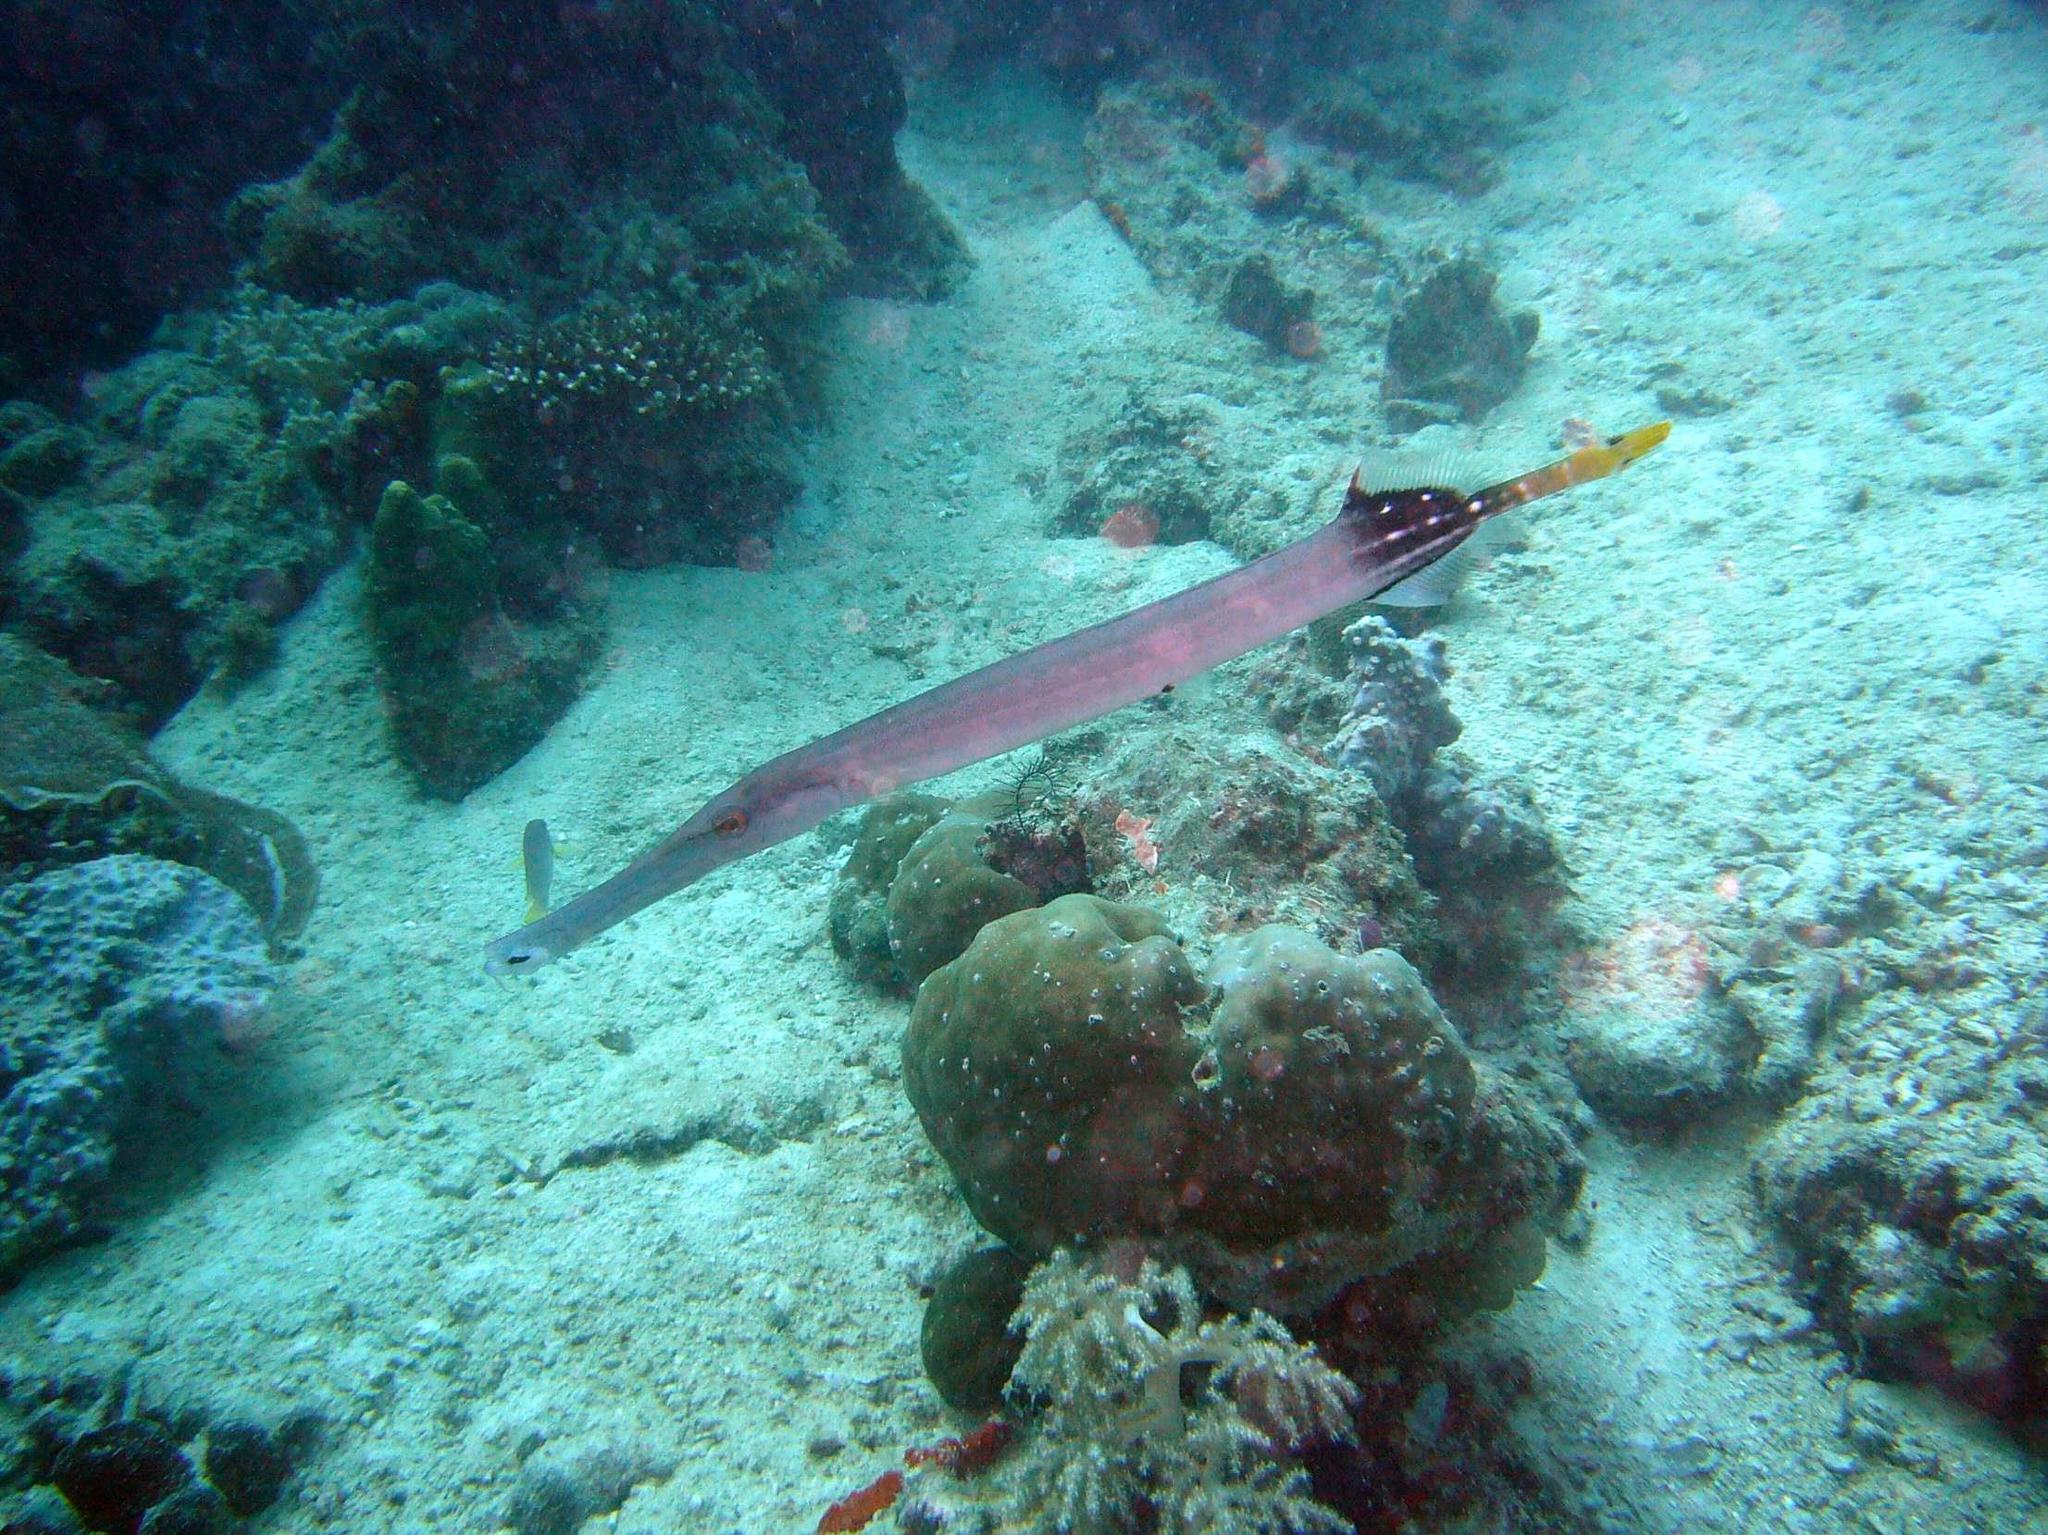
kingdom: Animalia
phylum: Chordata
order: Syngnathiformes
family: Aulostomidae
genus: Aulostomus
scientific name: Aulostomus chinensis
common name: Chinese trumpetfish
